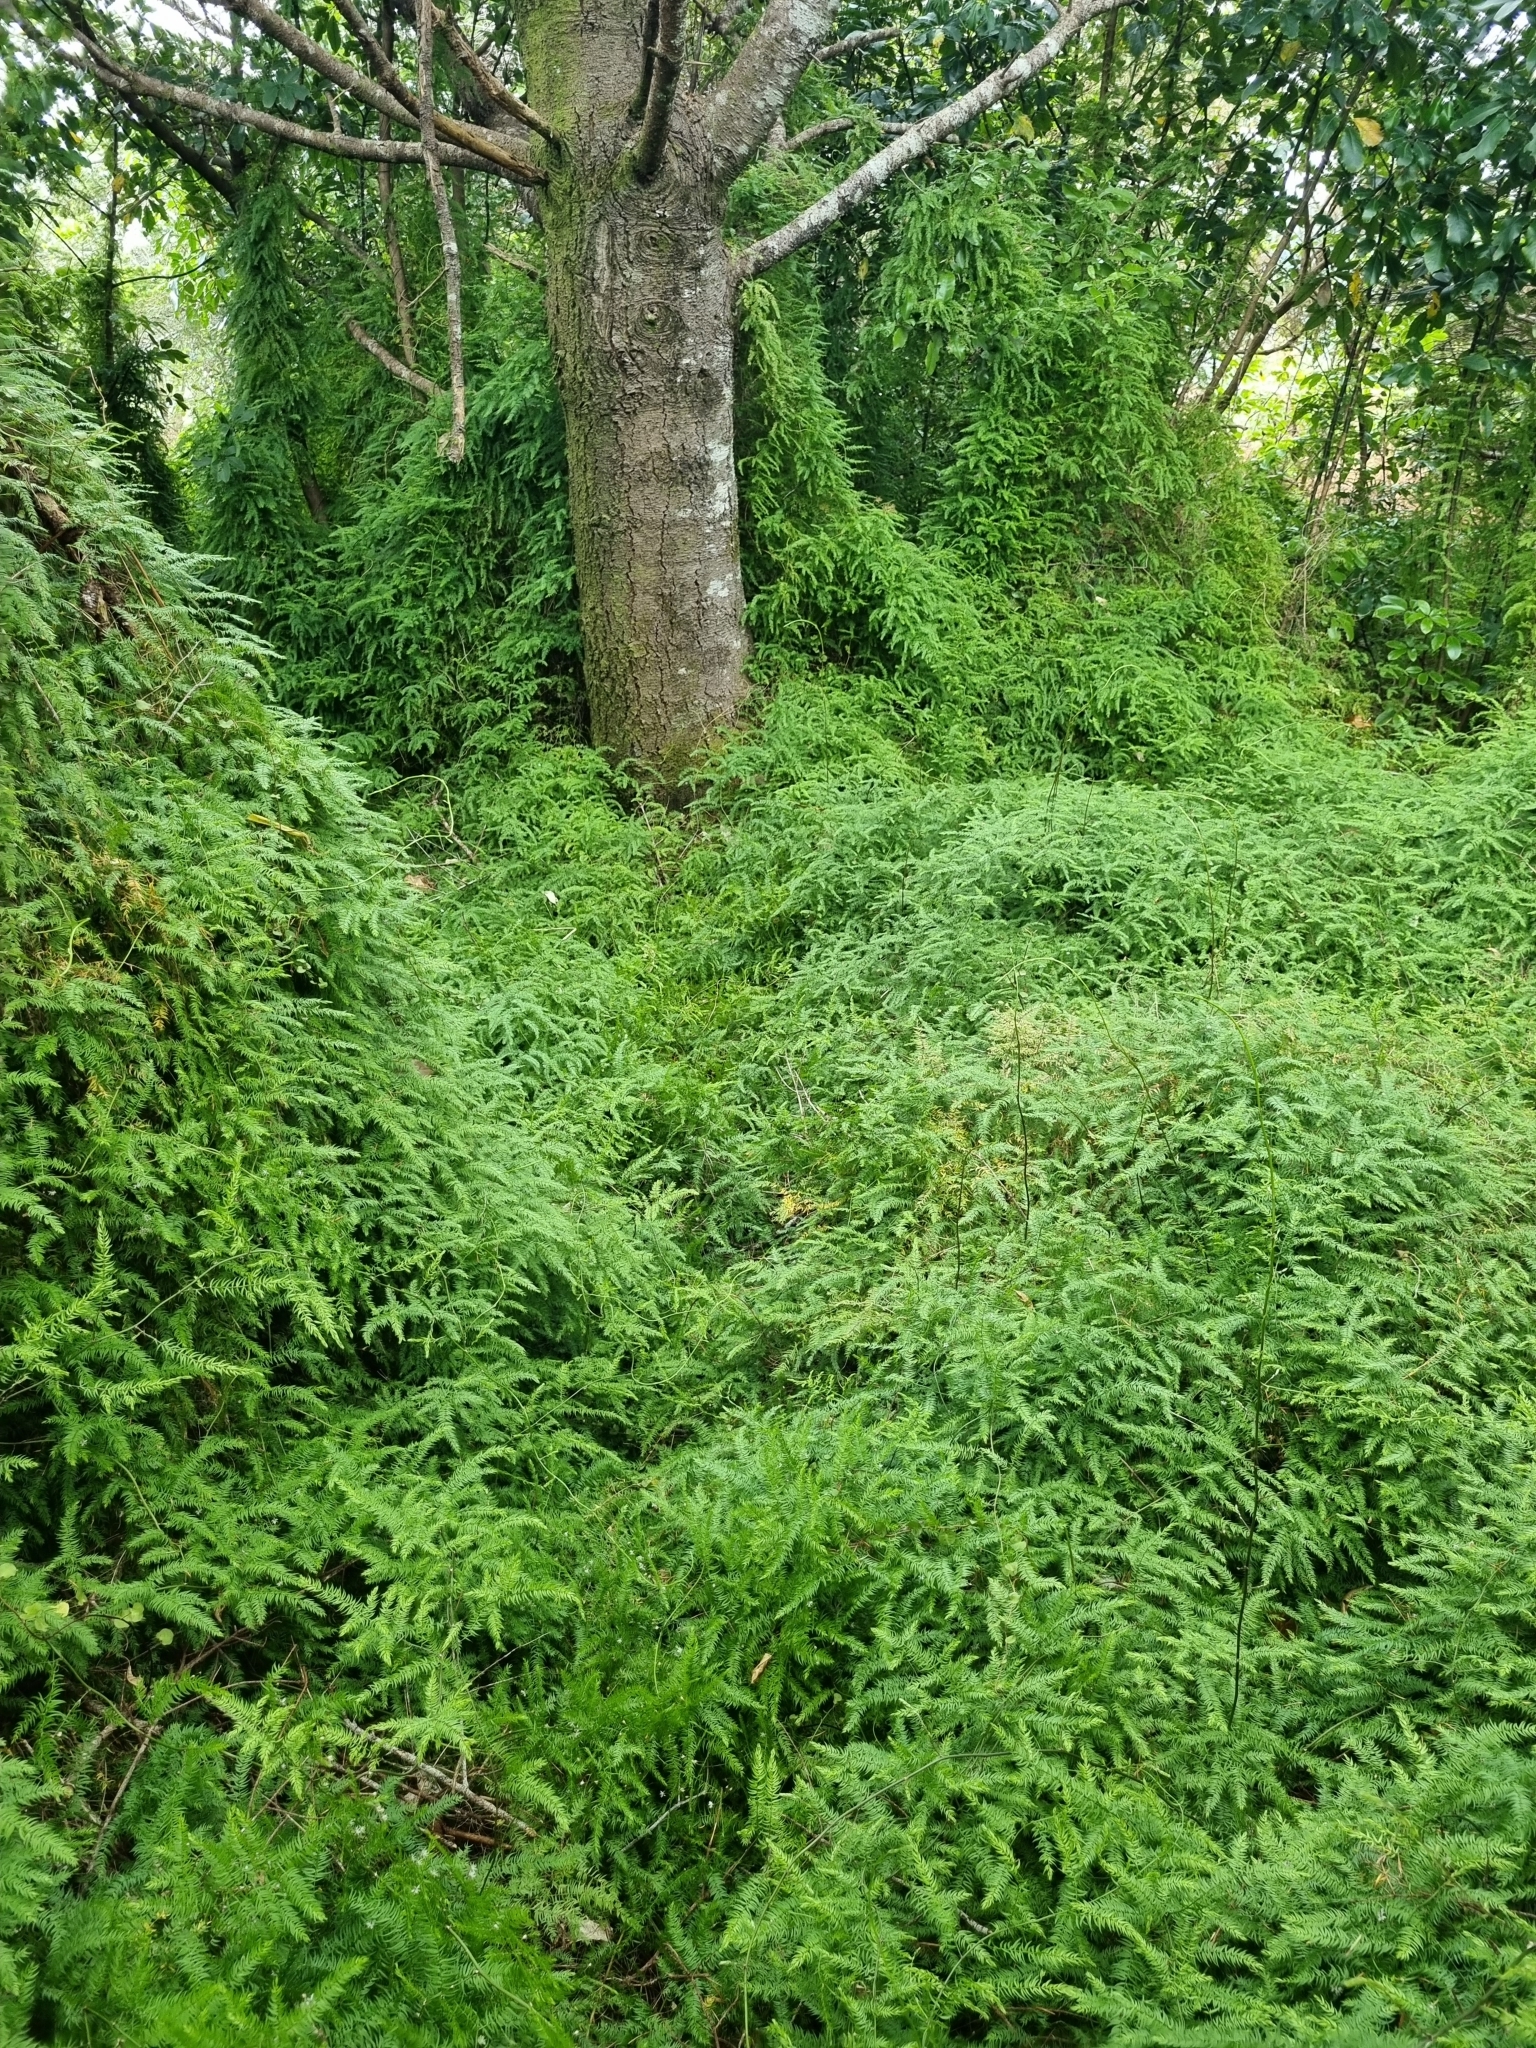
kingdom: Plantae
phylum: Tracheophyta
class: Liliopsida
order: Asparagales
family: Asparagaceae
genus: Asparagus
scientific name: Asparagus scandens
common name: Asparagus-fern
